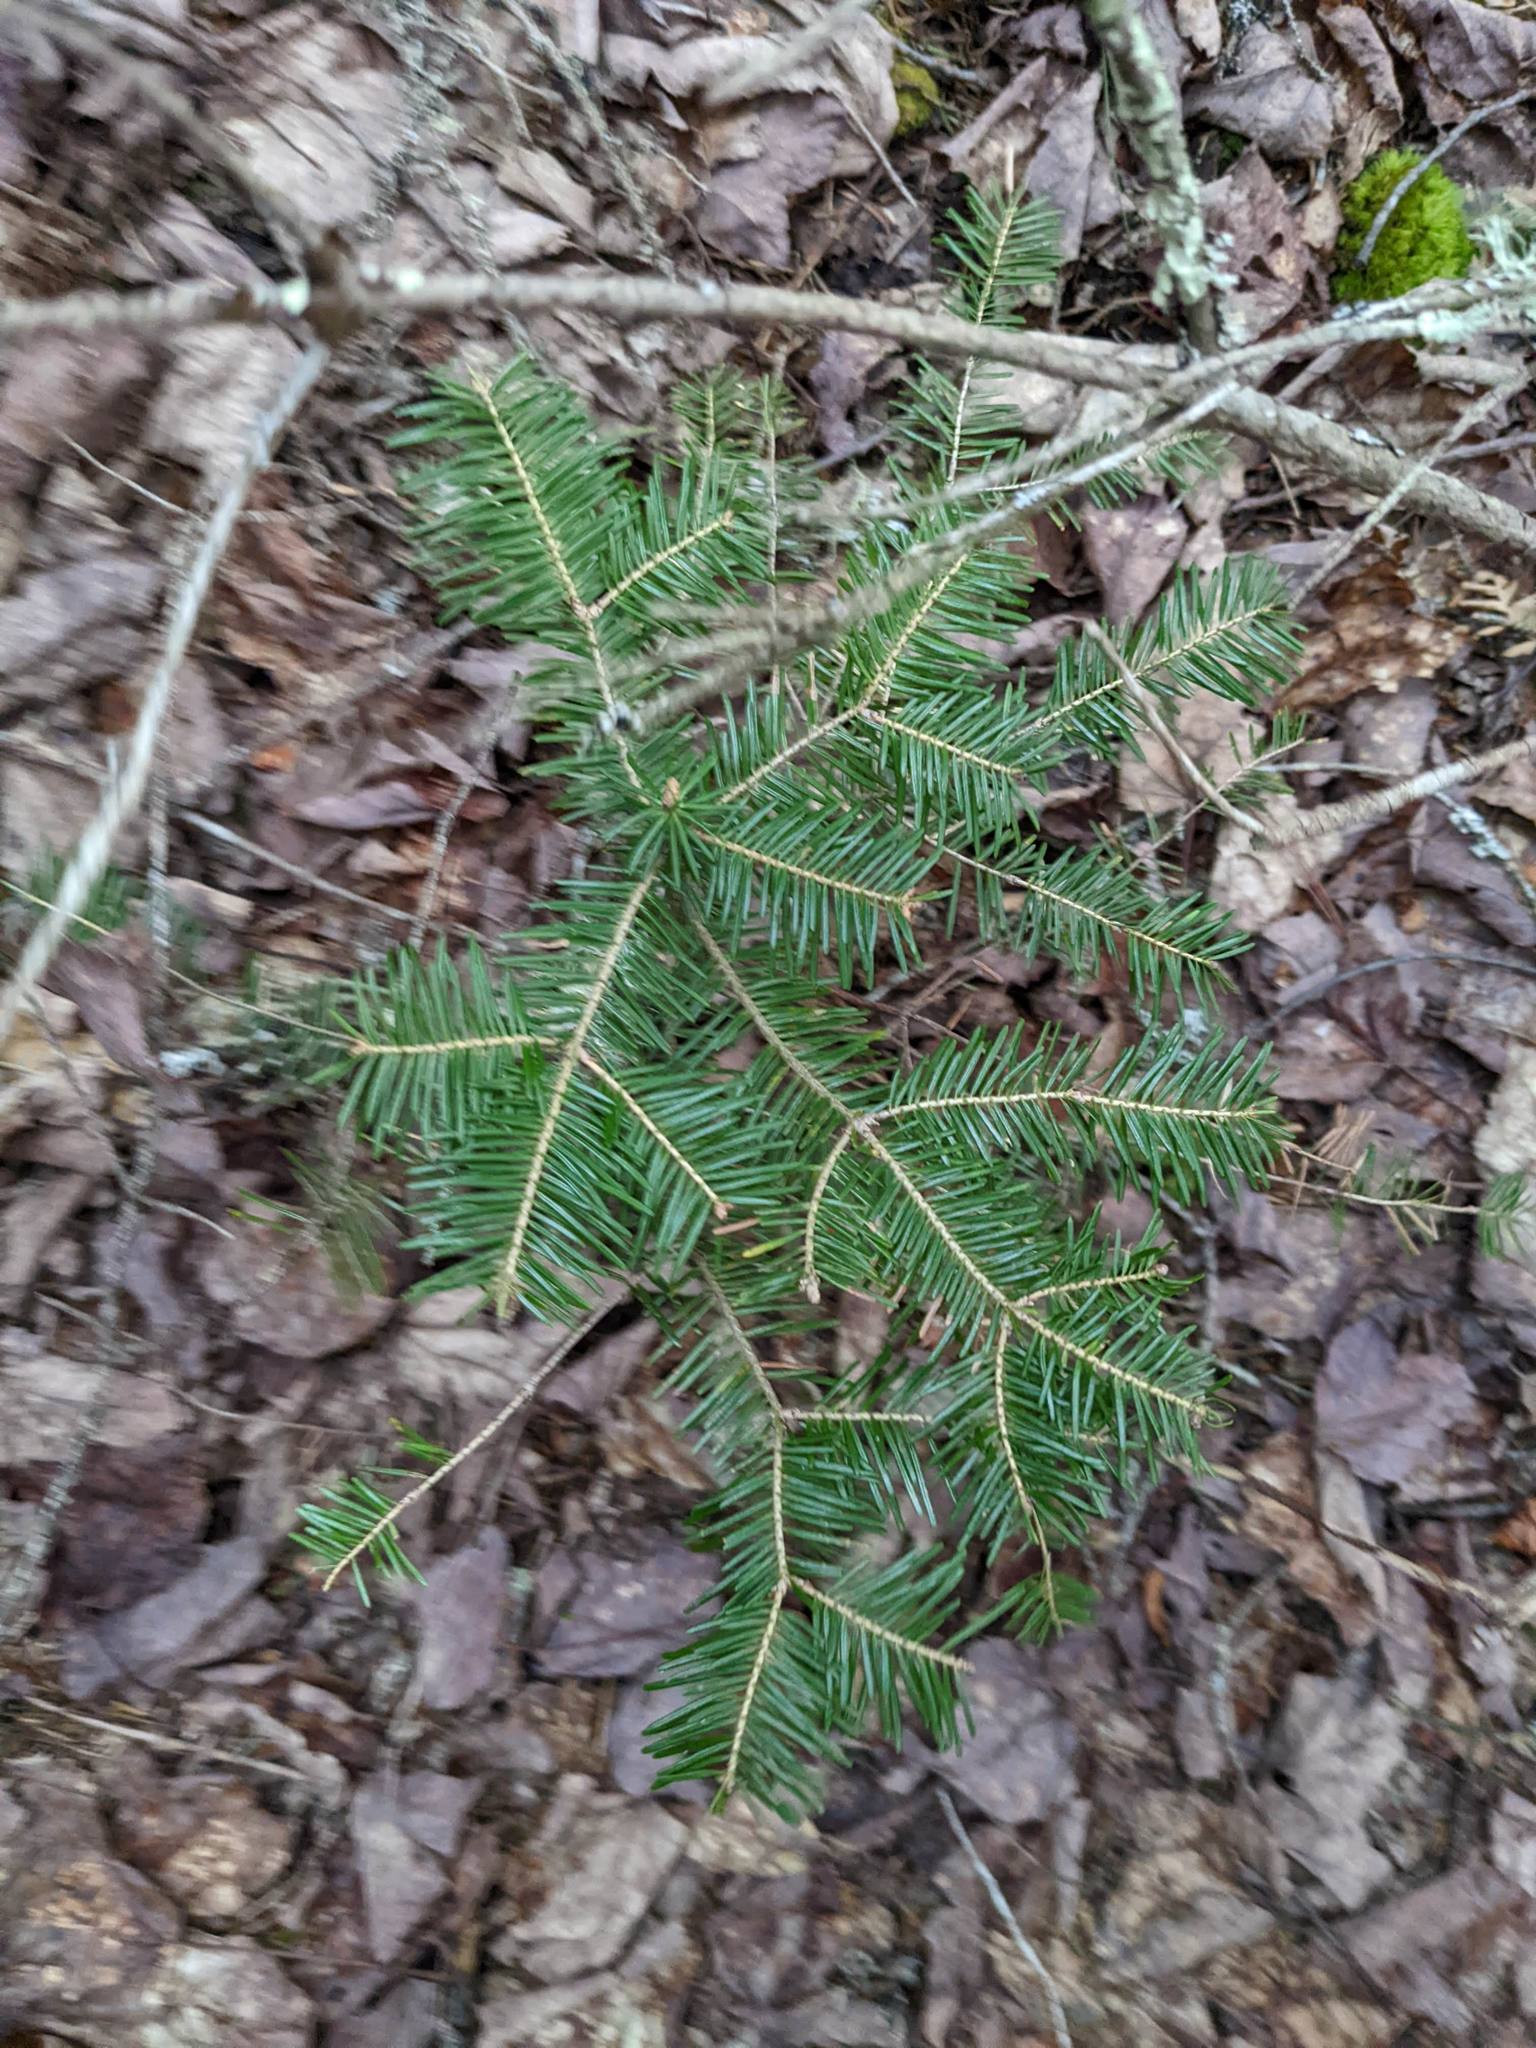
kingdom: Plantae
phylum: Tracheophyta
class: Pinopsida
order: Pinales
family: Pinaceae
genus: Abies
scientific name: Abies balsamea
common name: Balsam fir
